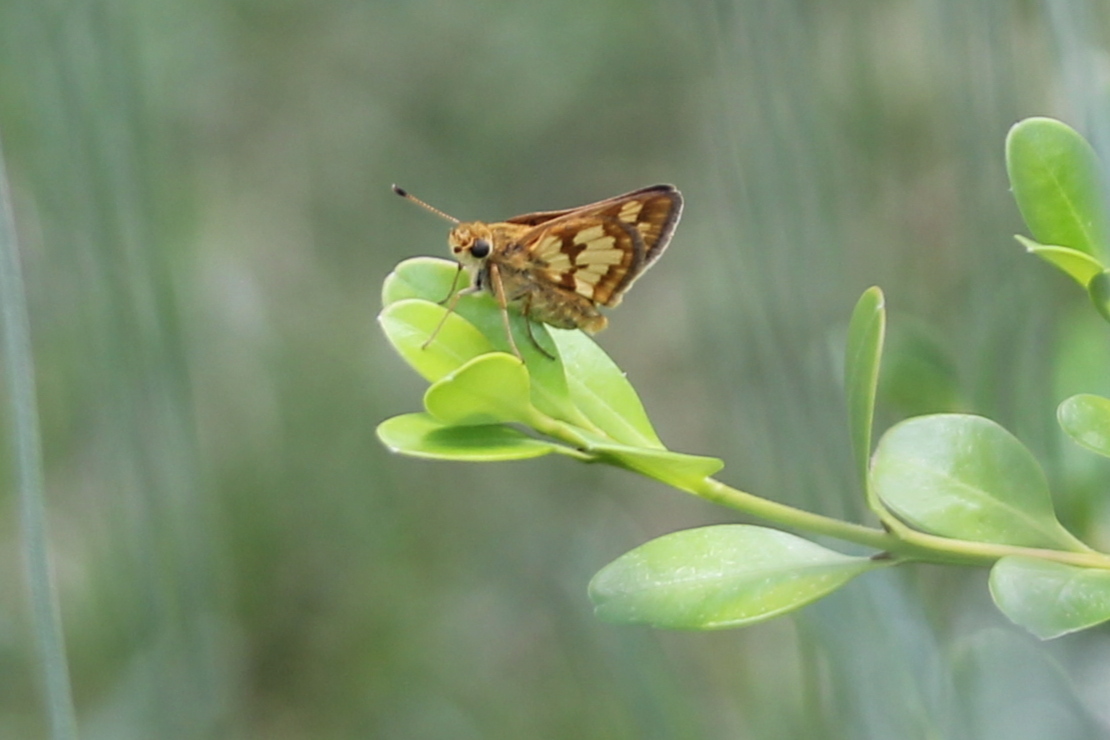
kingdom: Animalia
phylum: Arthropoda
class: Insecta
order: Lepidoptera
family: Hesperiidae
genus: Polites
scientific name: Polites coras
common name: Peck's skipper
